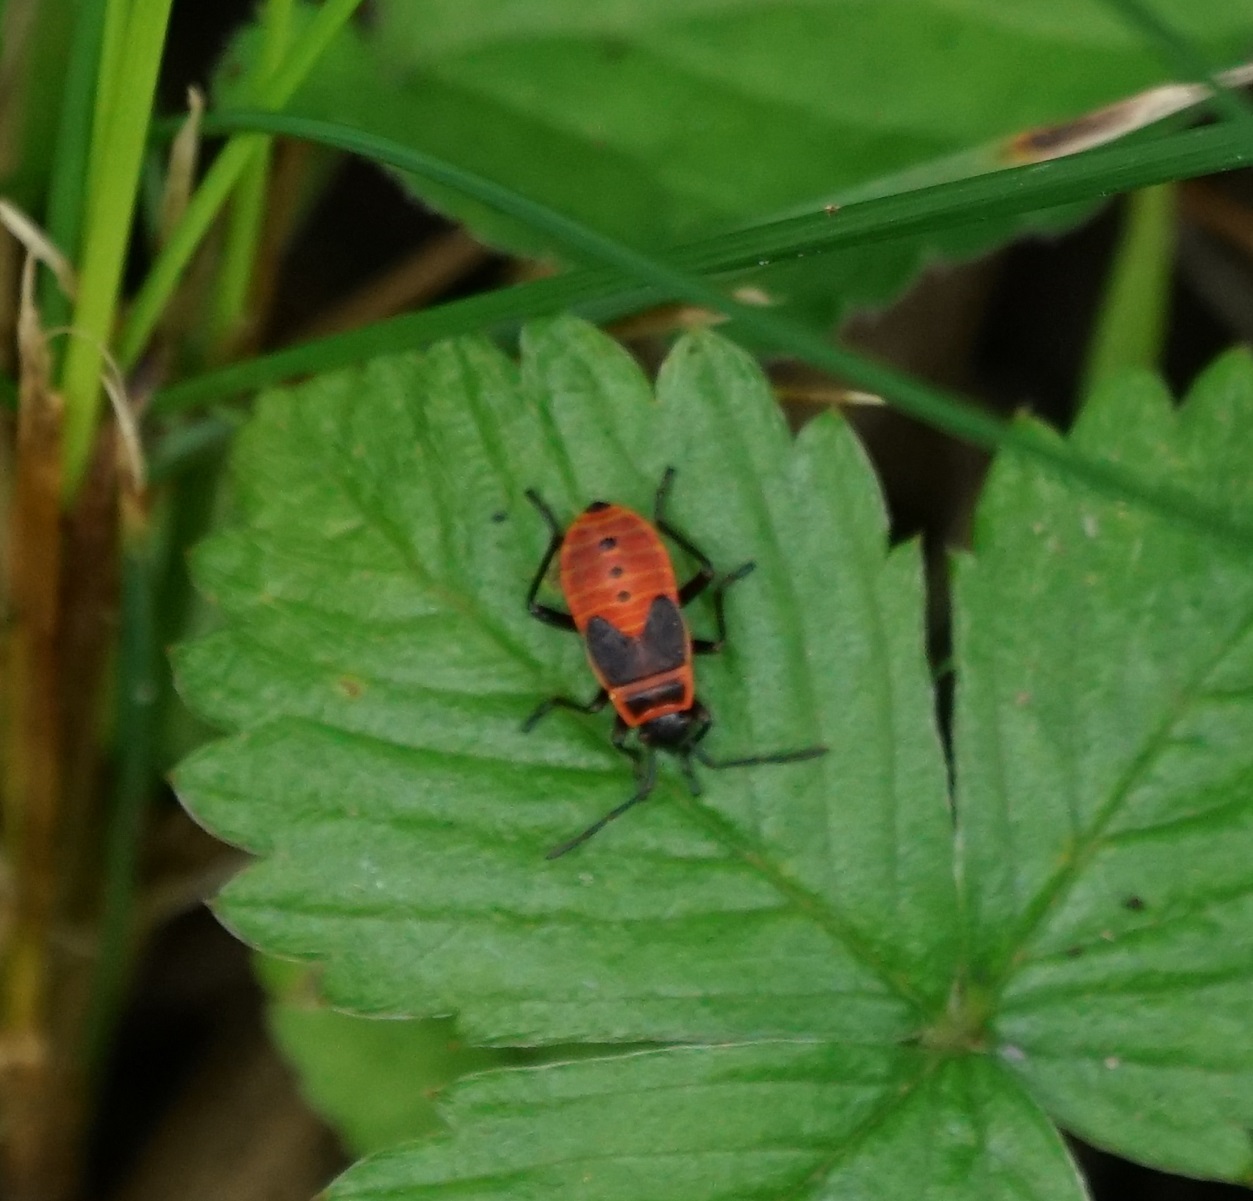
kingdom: Animalia
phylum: Arthropoda
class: Insecta
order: Hemiptera
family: Pyrrhocoridae
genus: Pyrrhocoris
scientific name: Pyrrhocoris apterus
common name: Firebug
